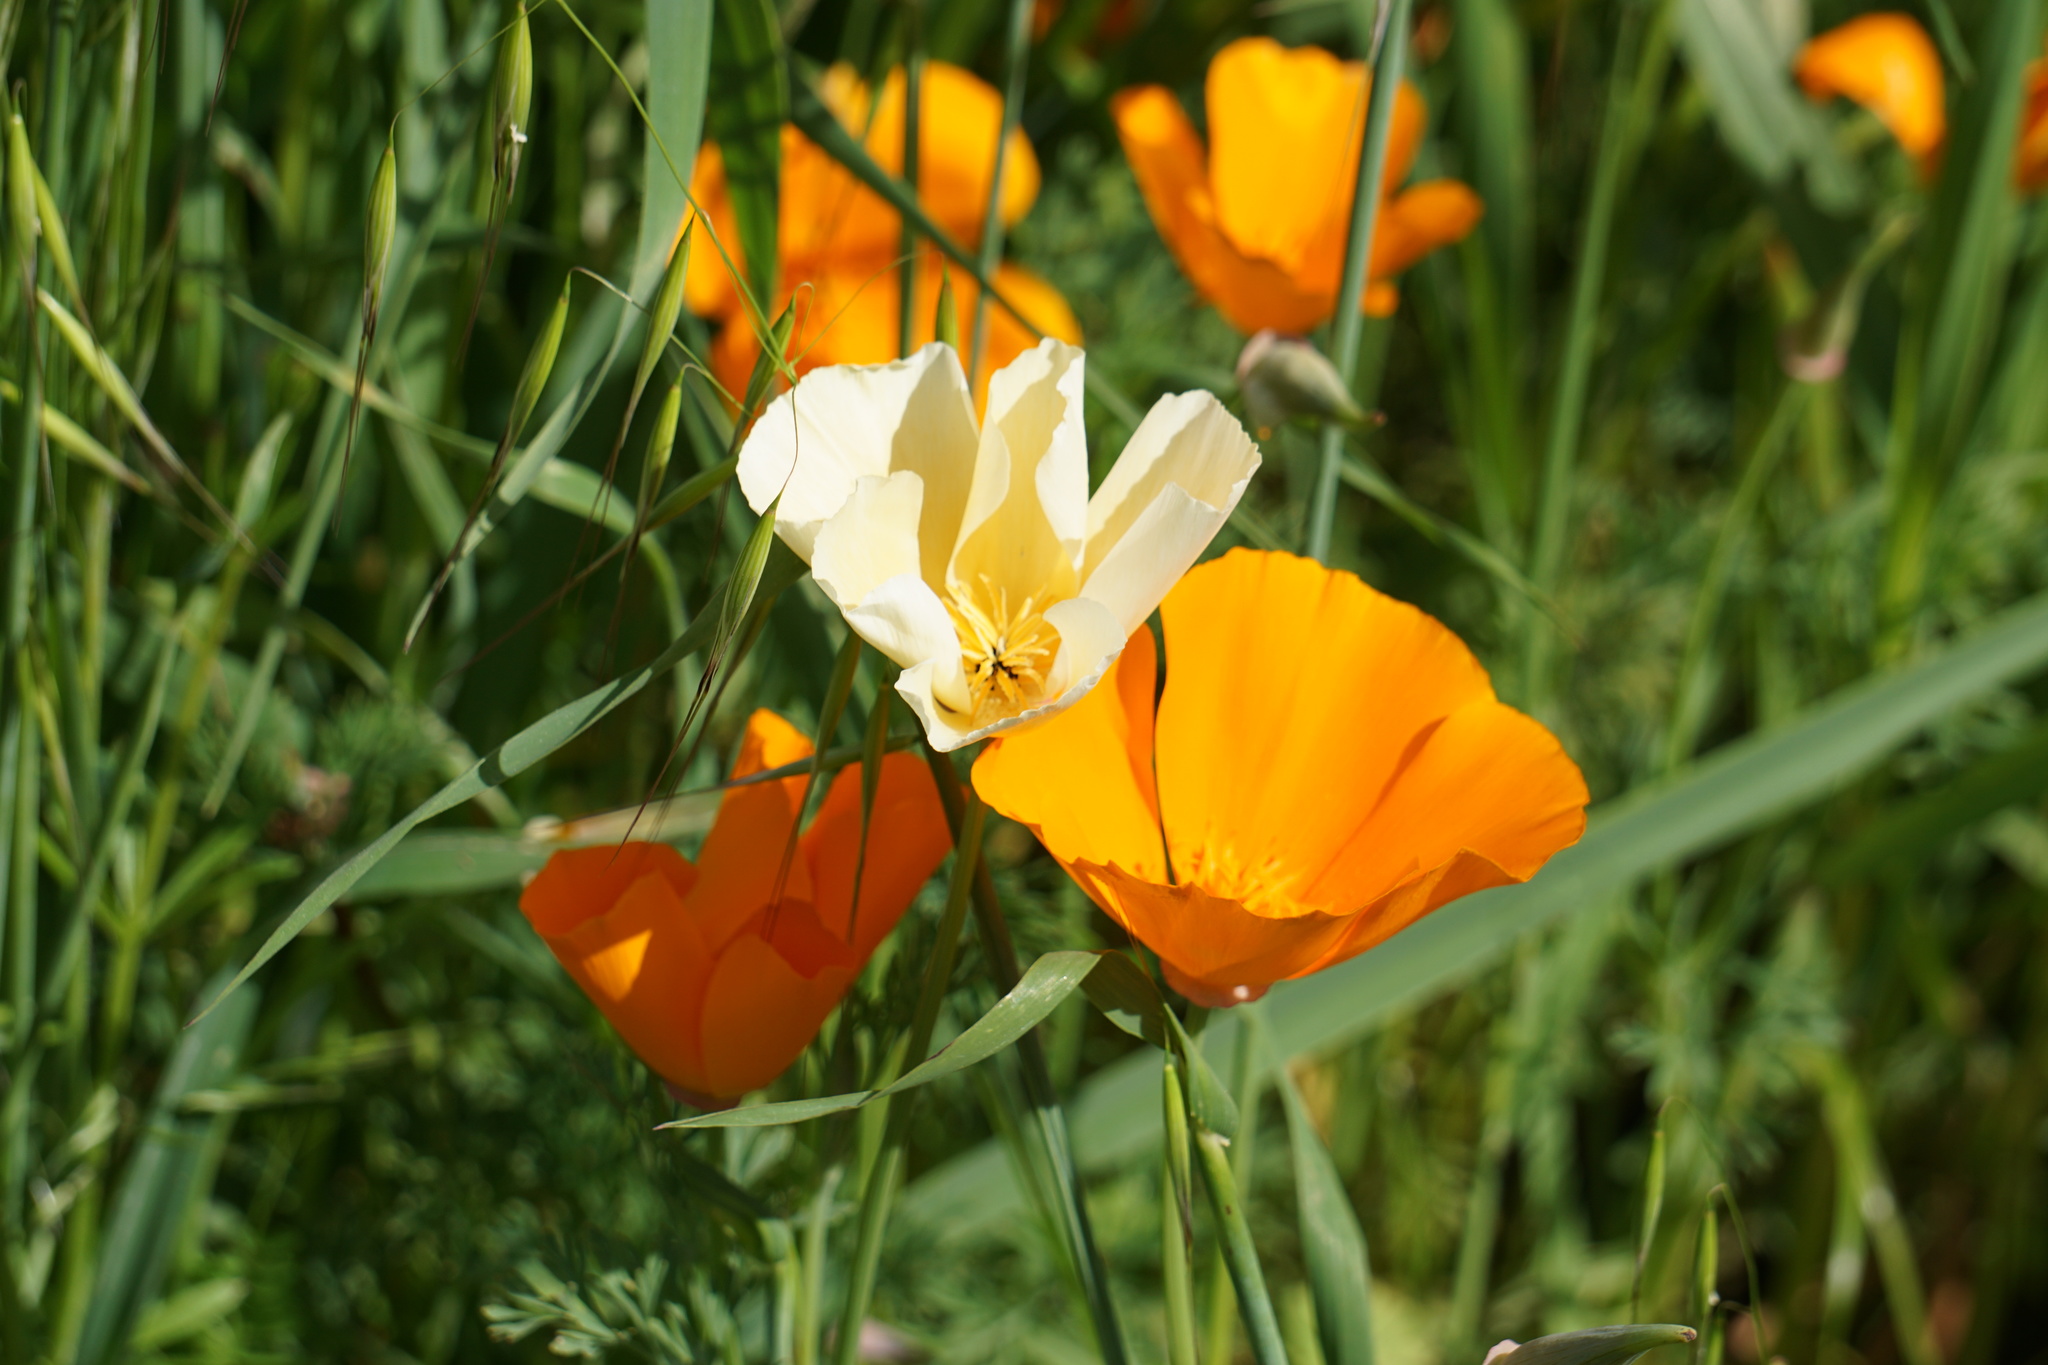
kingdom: Plantae
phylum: Tracheophyta
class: Magnoliopsida
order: Ranunculales
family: Papaveraceae
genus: Eschscholzia
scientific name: Eschscholzia californica
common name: California poppy
